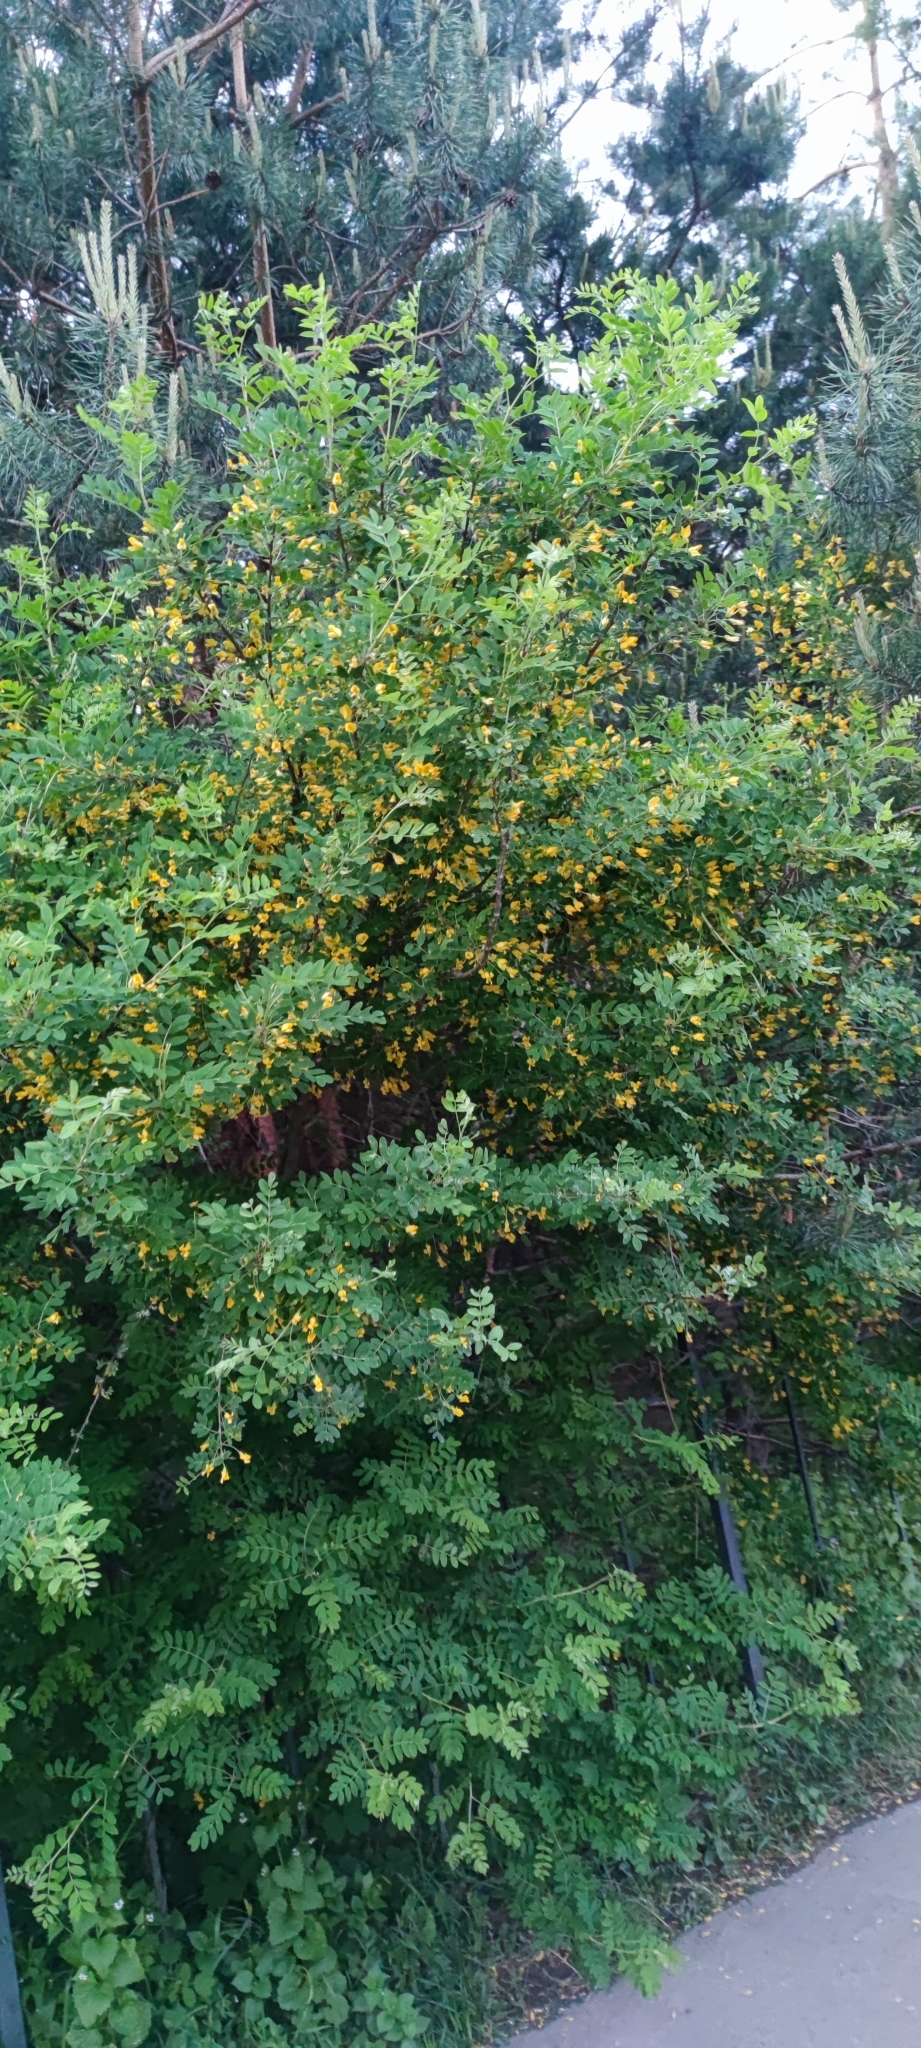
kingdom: Plantae
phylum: Tracheophyta
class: Magnoliopsida
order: Fabales
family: Fabaceae
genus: Caragana
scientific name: Caragana arborescens
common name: Siberian peashrub
